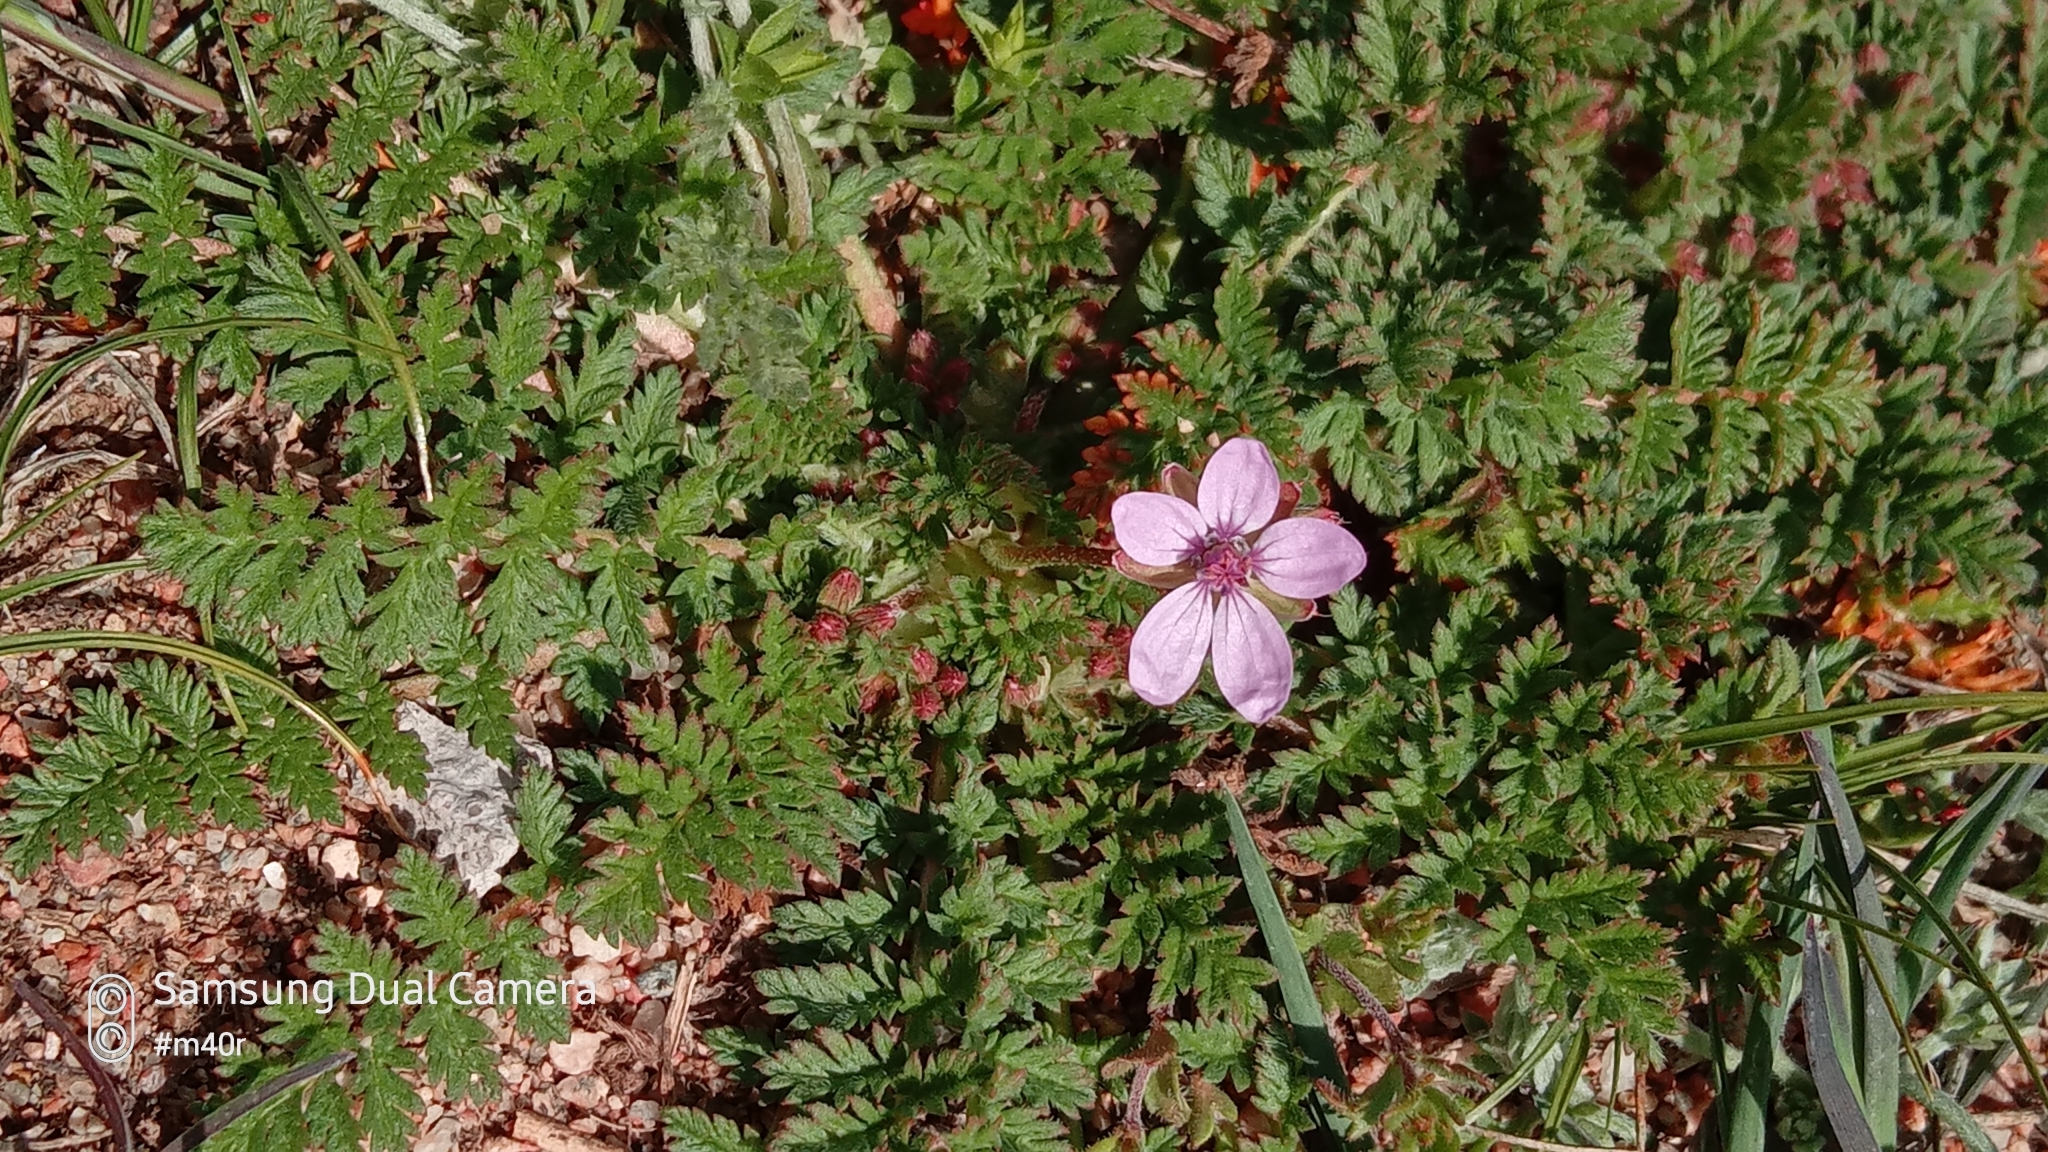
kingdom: Plantae
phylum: Tracheophyta
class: Magnoliopsida
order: Geraniales
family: Geraniaceae
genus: Erodium
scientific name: Erodium cicutarium
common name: Common stork's-bill
